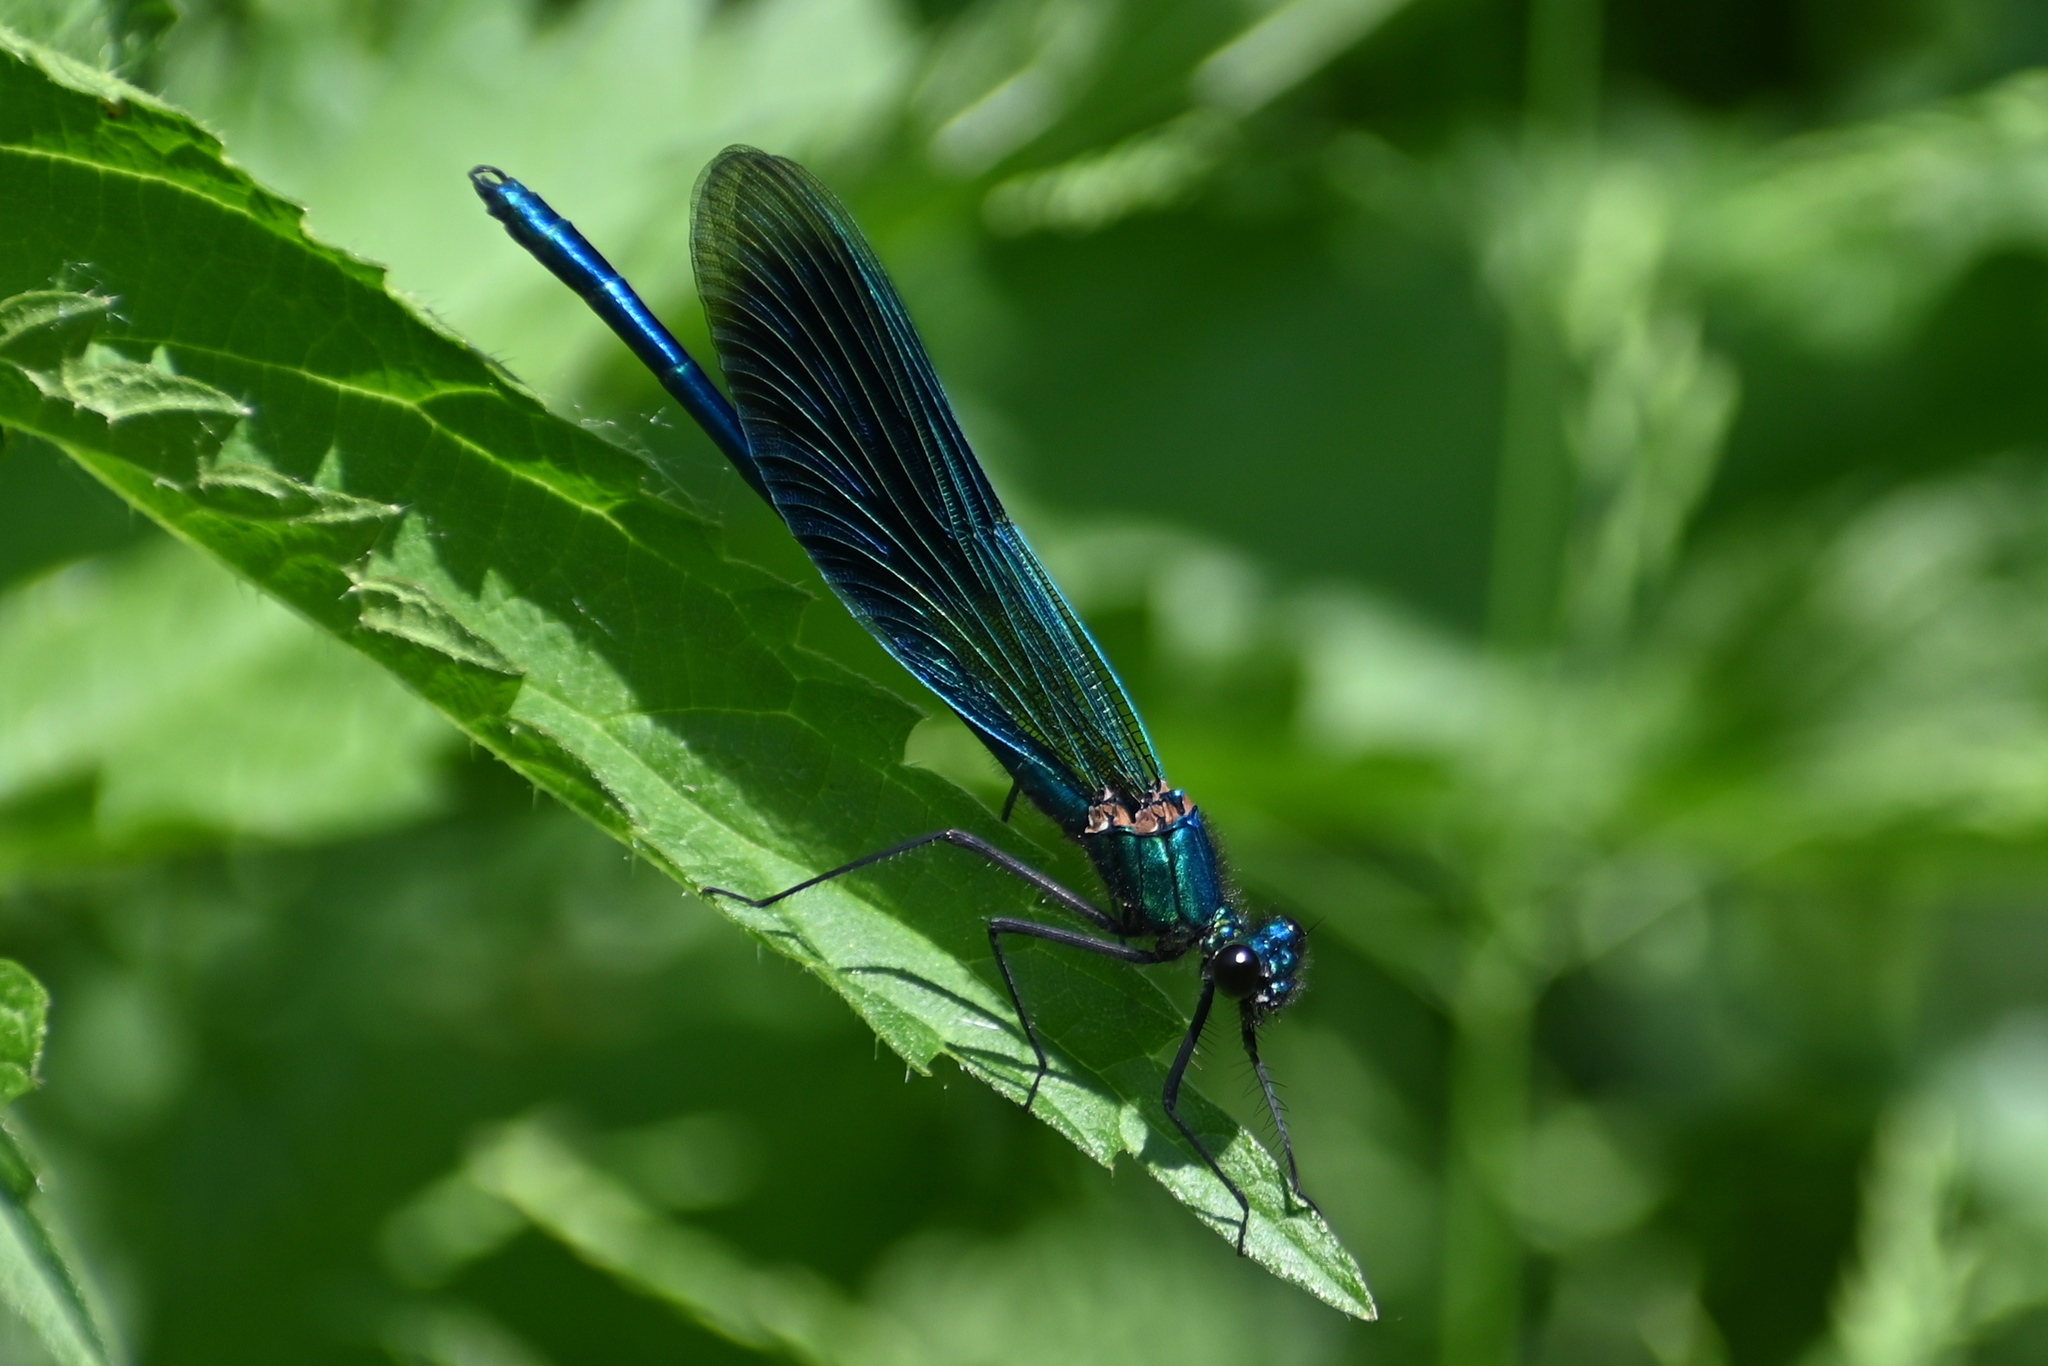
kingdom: Animalia
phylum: Arthropoda
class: Insecta
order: Odonata
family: Calopterygidae
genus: Calopteryx
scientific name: Calopteryx splendens
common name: Banded demoiselle
